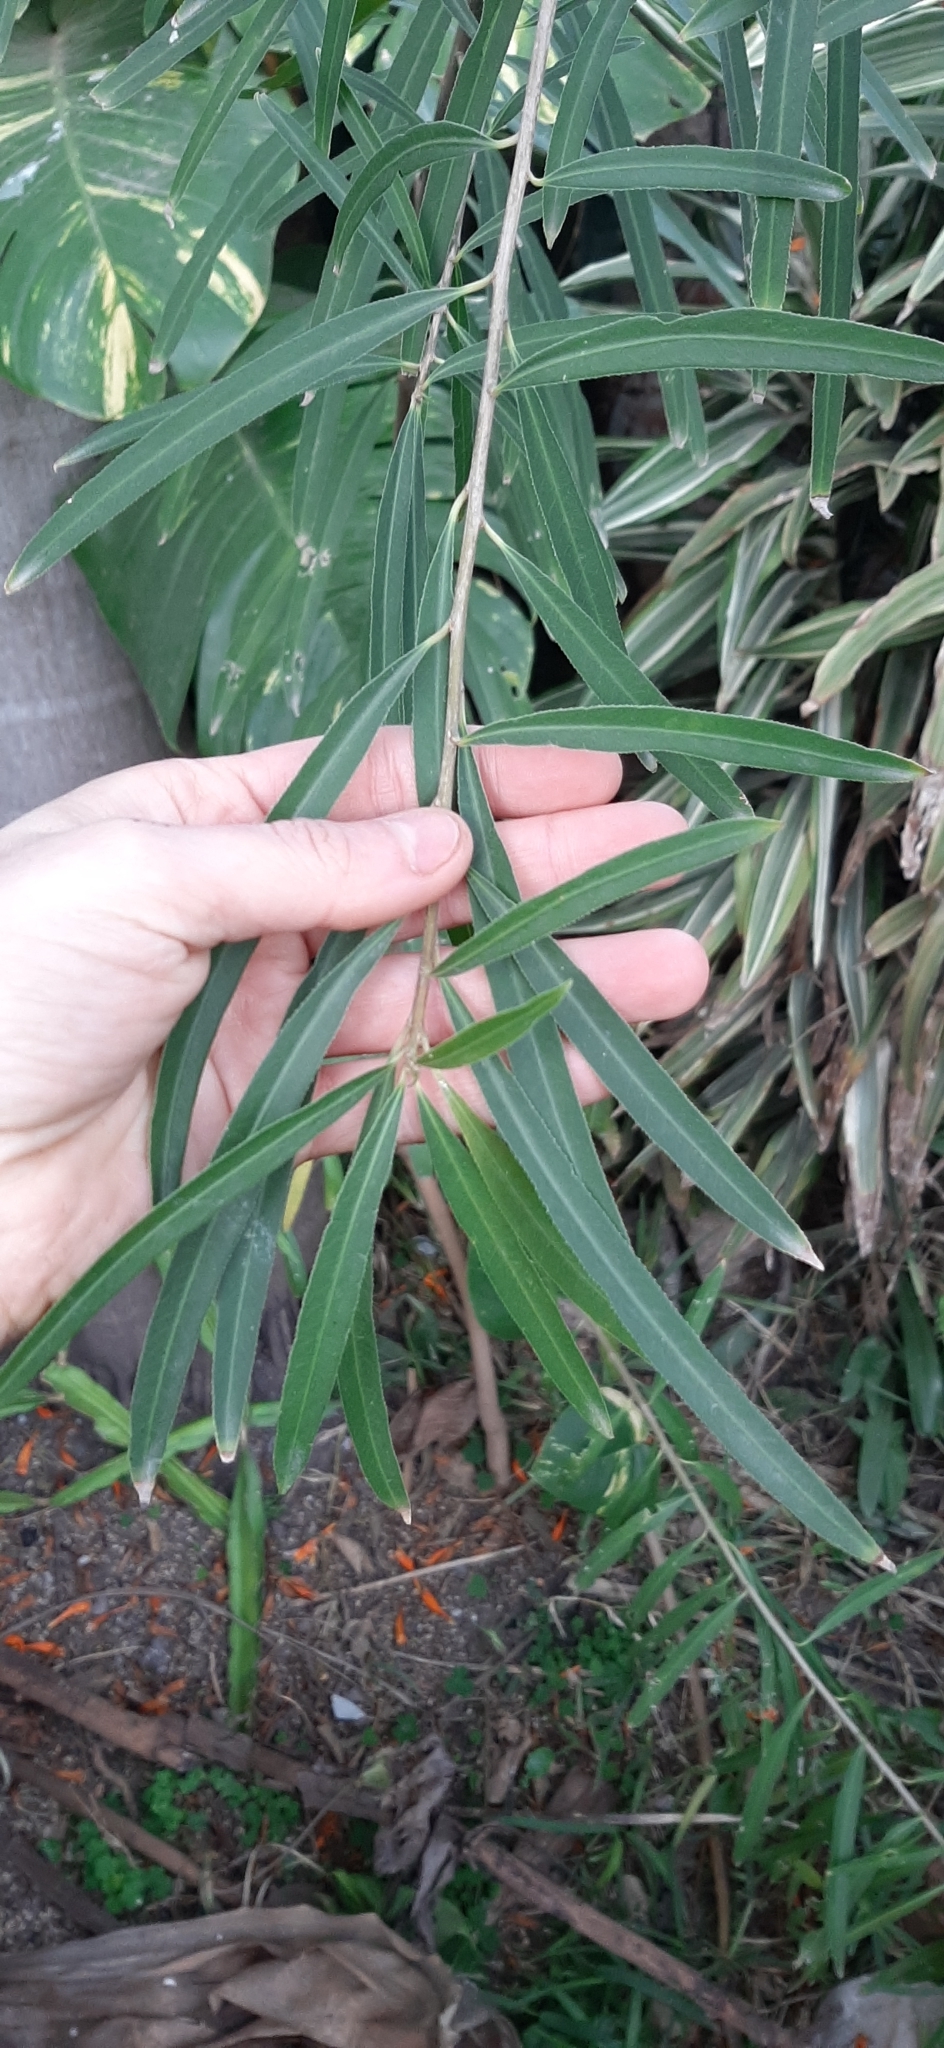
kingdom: Plantae
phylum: Tracheophyta
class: Magnoliopsida
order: Malpighiales
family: Euphorbiaceae
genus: Sapium
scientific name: Sapium haematospermum
